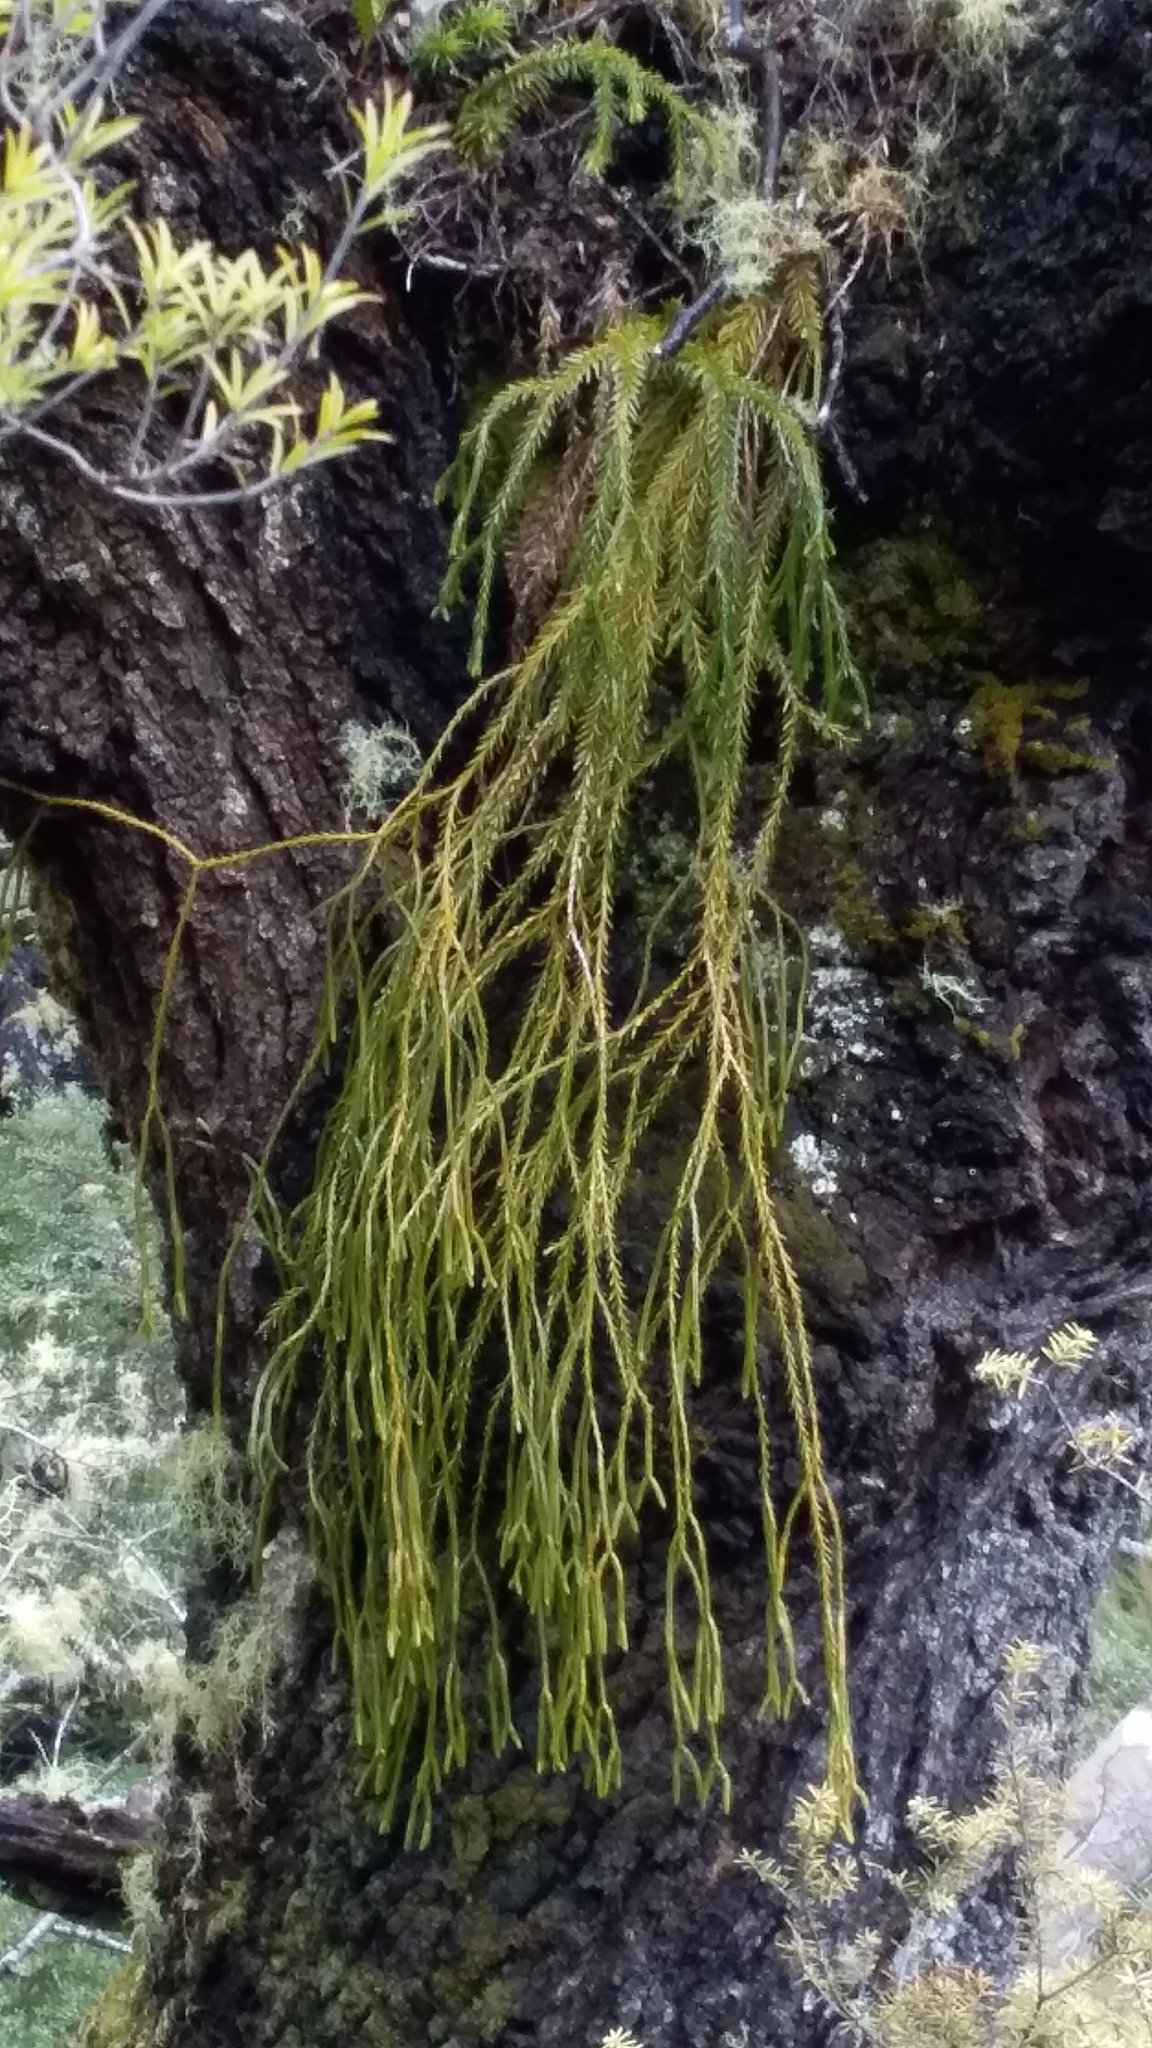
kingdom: Plantae
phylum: Tracheophyta
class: Lycopodiopsida
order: Lycopodiales
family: Lycopodiaceae
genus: Phlegmariurus
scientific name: Phlegmariurus billardierei
